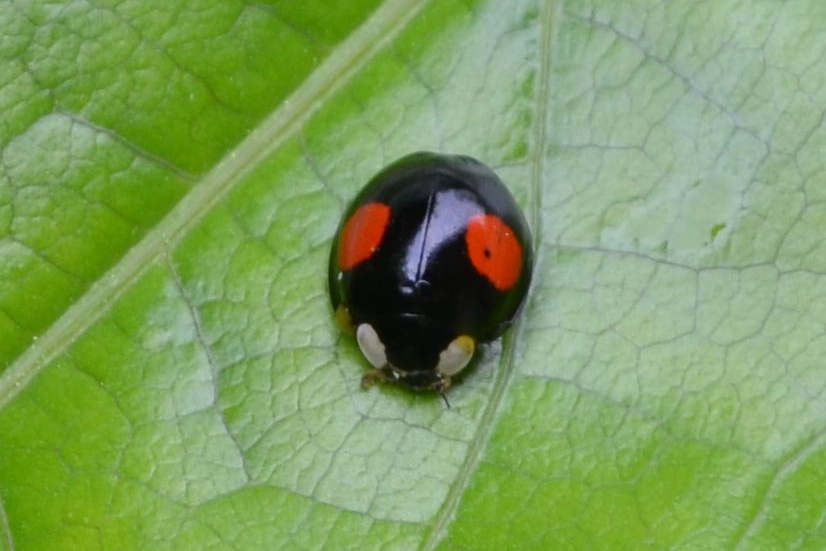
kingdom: Animalia
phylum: Arthropoda
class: Insecta
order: Coleoptera
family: Coccinellidae
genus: Harmonia
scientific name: Harmonia axyridis
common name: Harlequin ladybird
